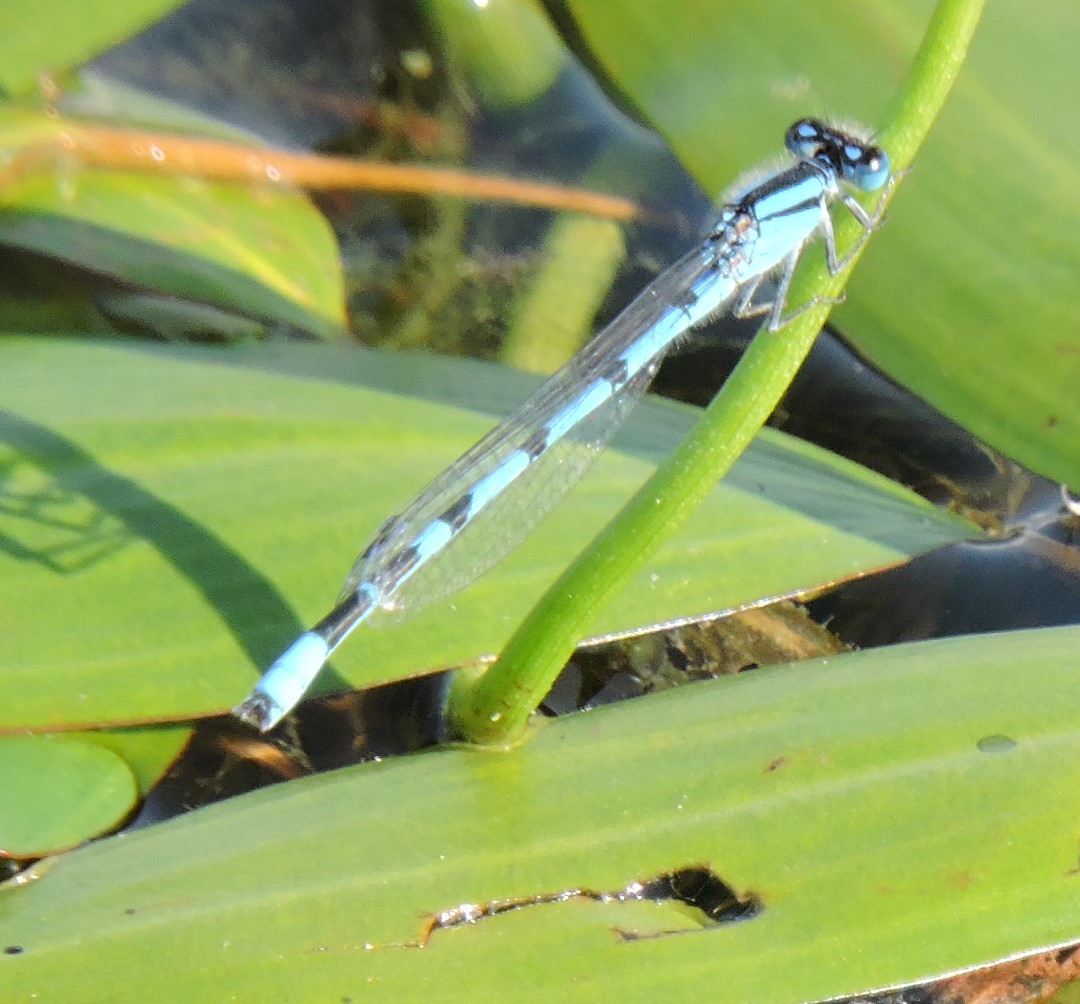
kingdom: Animalia
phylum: Arthropoda
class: Insecta
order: Odonata
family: Coenagrionidae
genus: Enallagma
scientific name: Enallagma civile
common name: Damselfly
